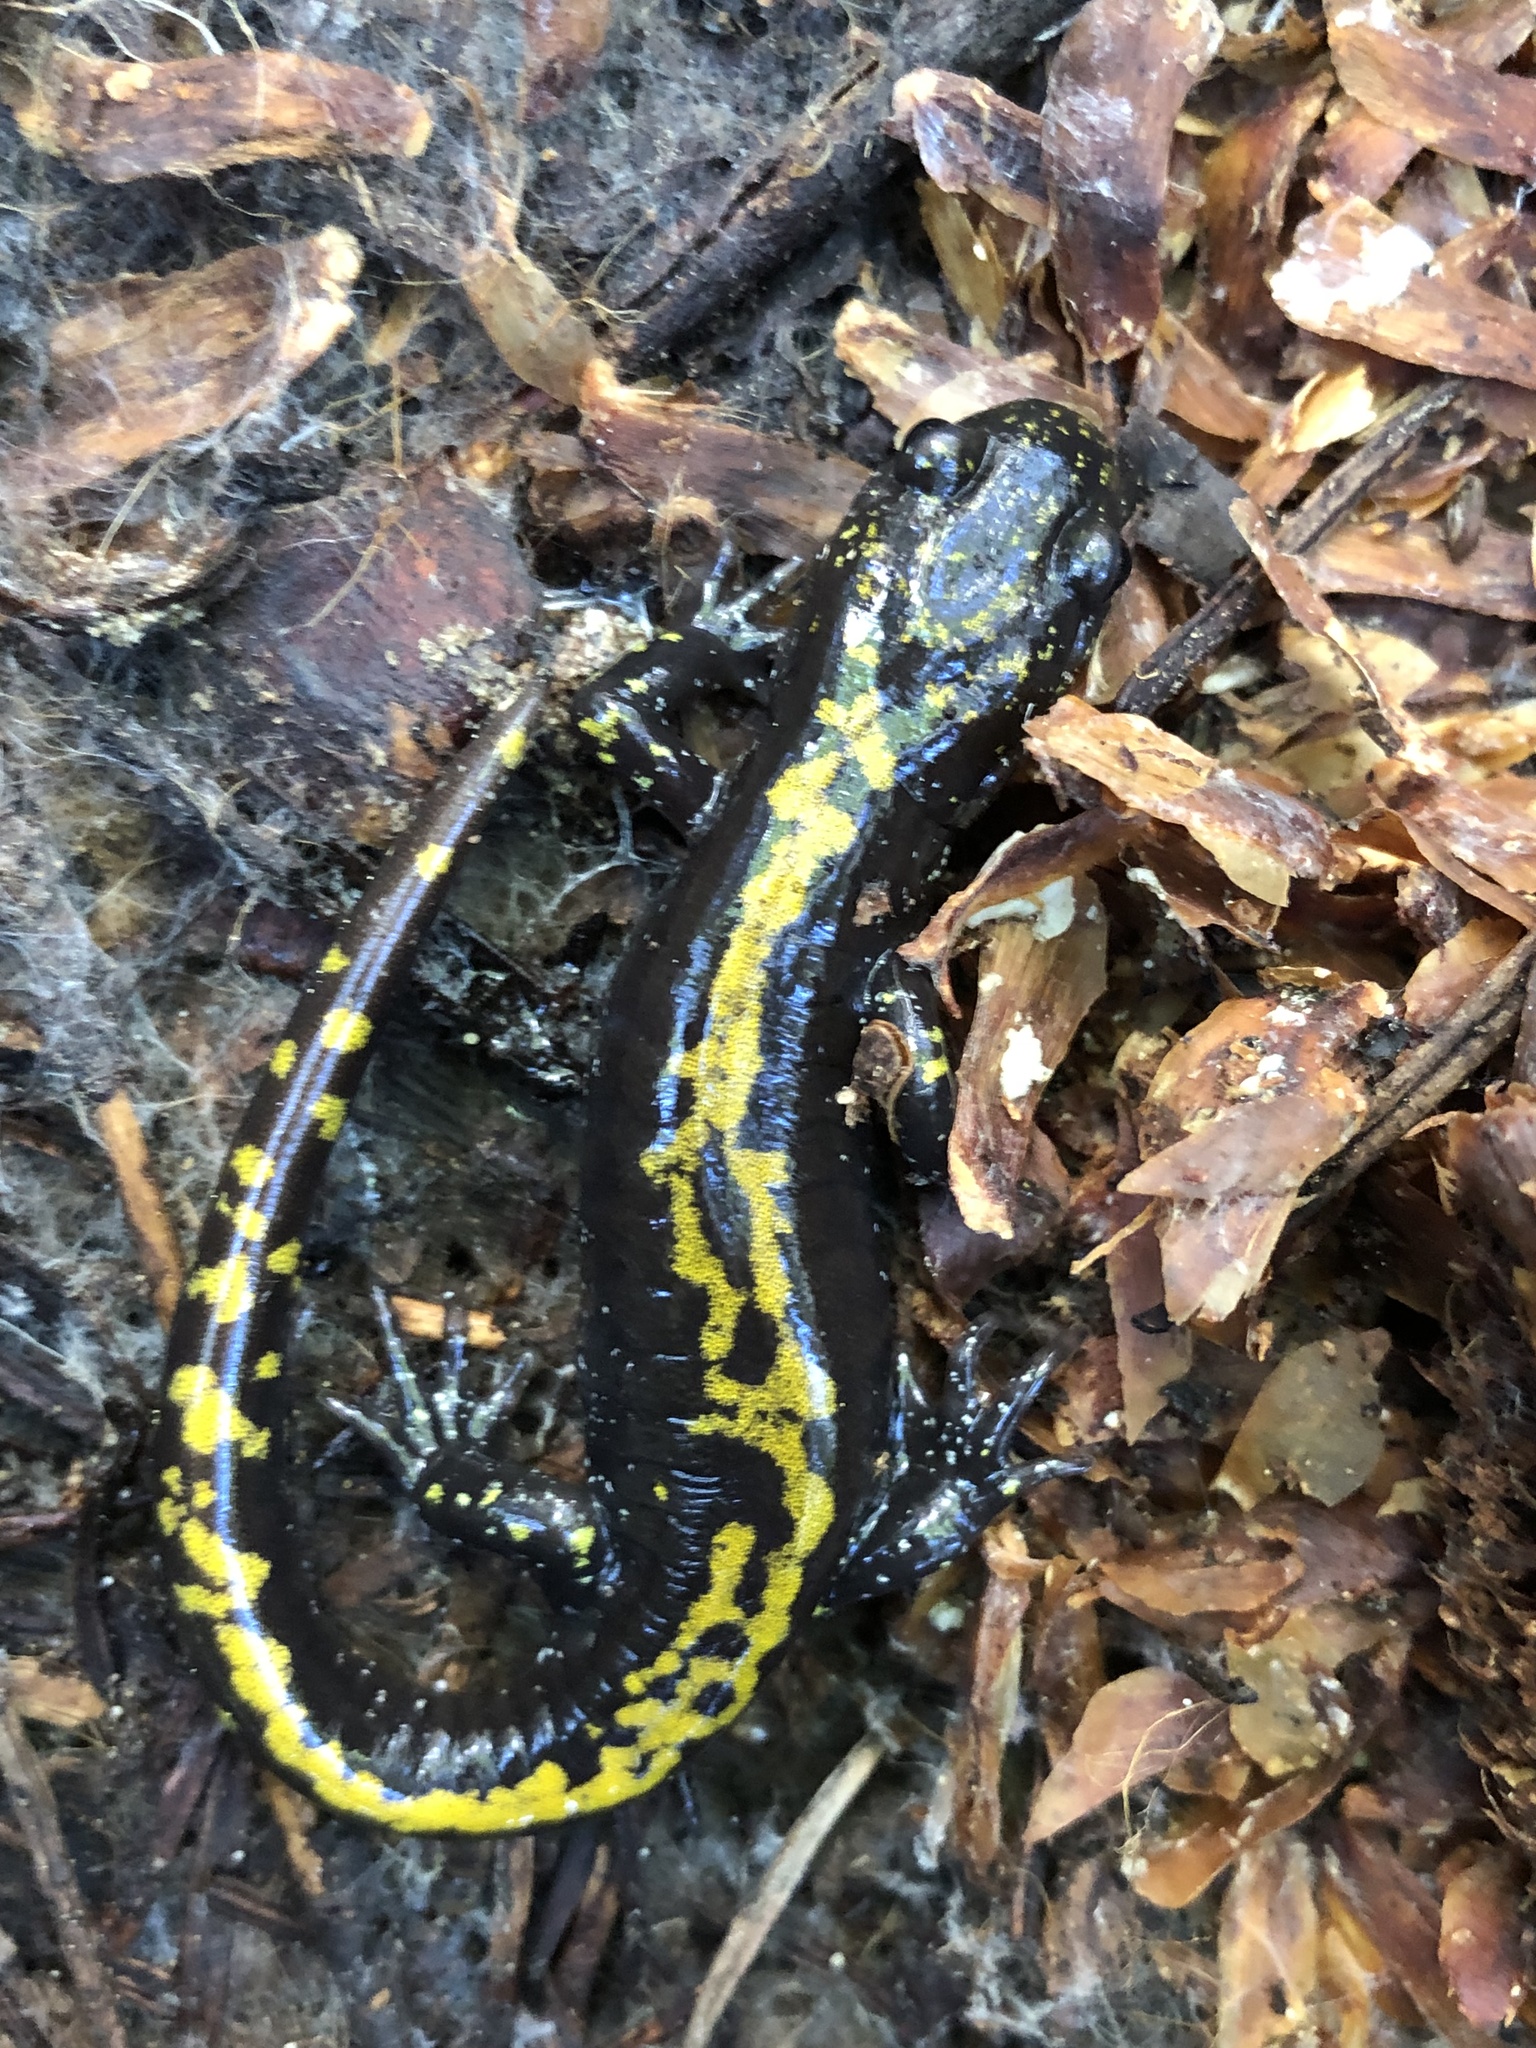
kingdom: Animalia
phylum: Chordata
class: Amphibia
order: Caudata
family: Ambystomatidae
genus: Ambystoma
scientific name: Ambystoma macrodactylum
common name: Long-toed salamander
